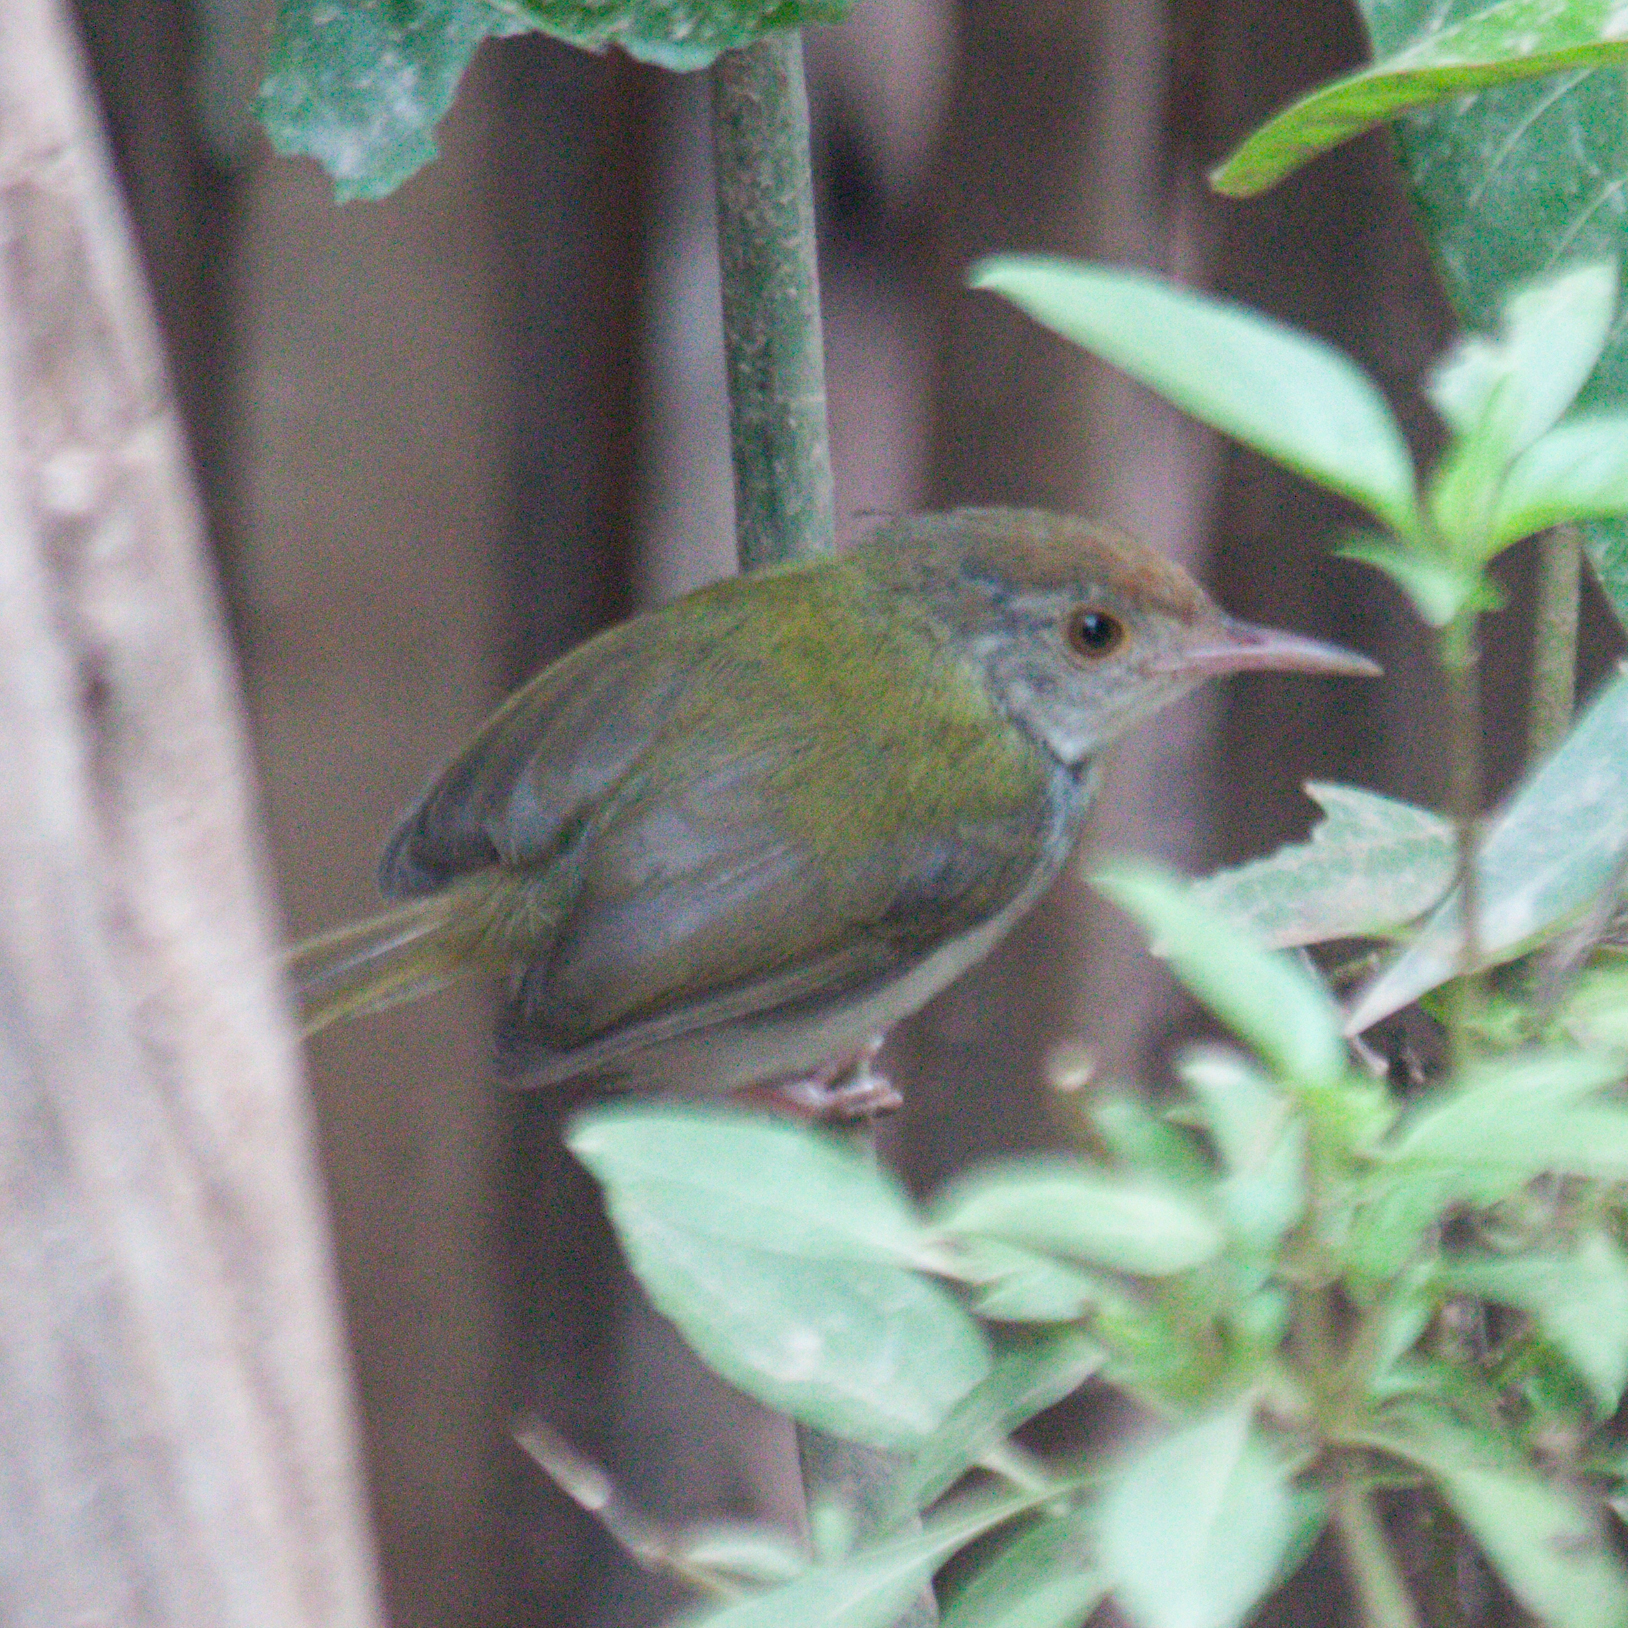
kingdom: Animalia
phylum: Chordata
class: Aves
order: Passeriformes
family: Cisticolidae
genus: Orthotomus
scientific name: Orthotomus sutorius
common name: Common tailorbird
